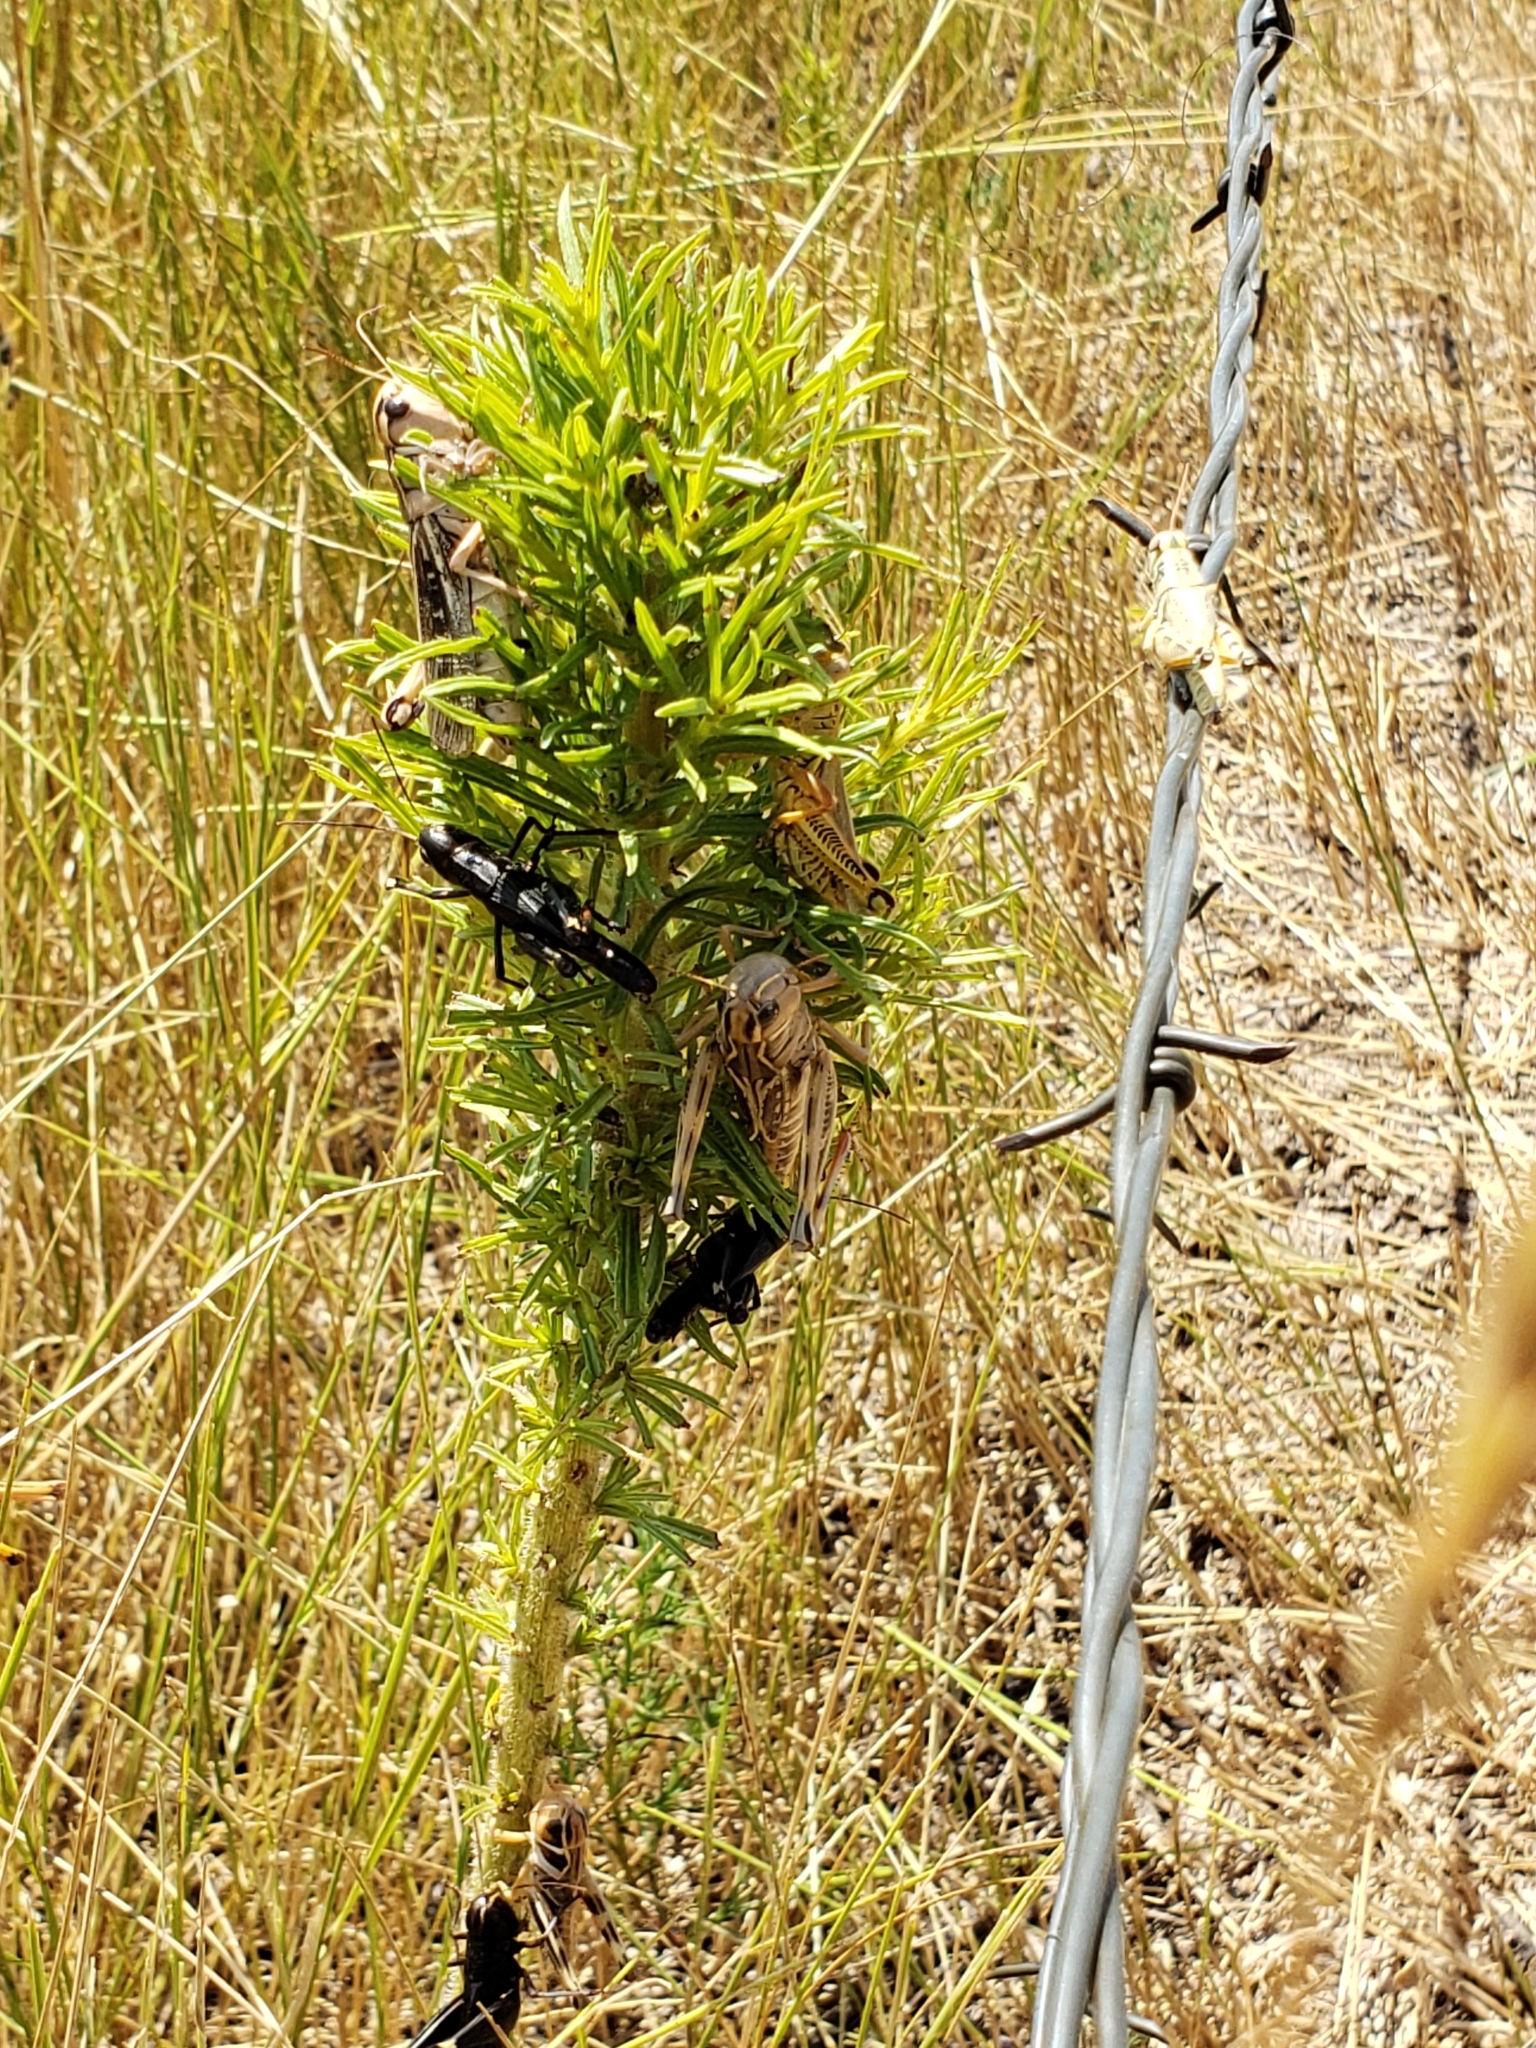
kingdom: Animalia
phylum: Arthropoda
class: Insecta
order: Orthoptera
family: Acrididae
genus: Boopedon
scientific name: Boopedon nubilum
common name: Ebony grasshopper
